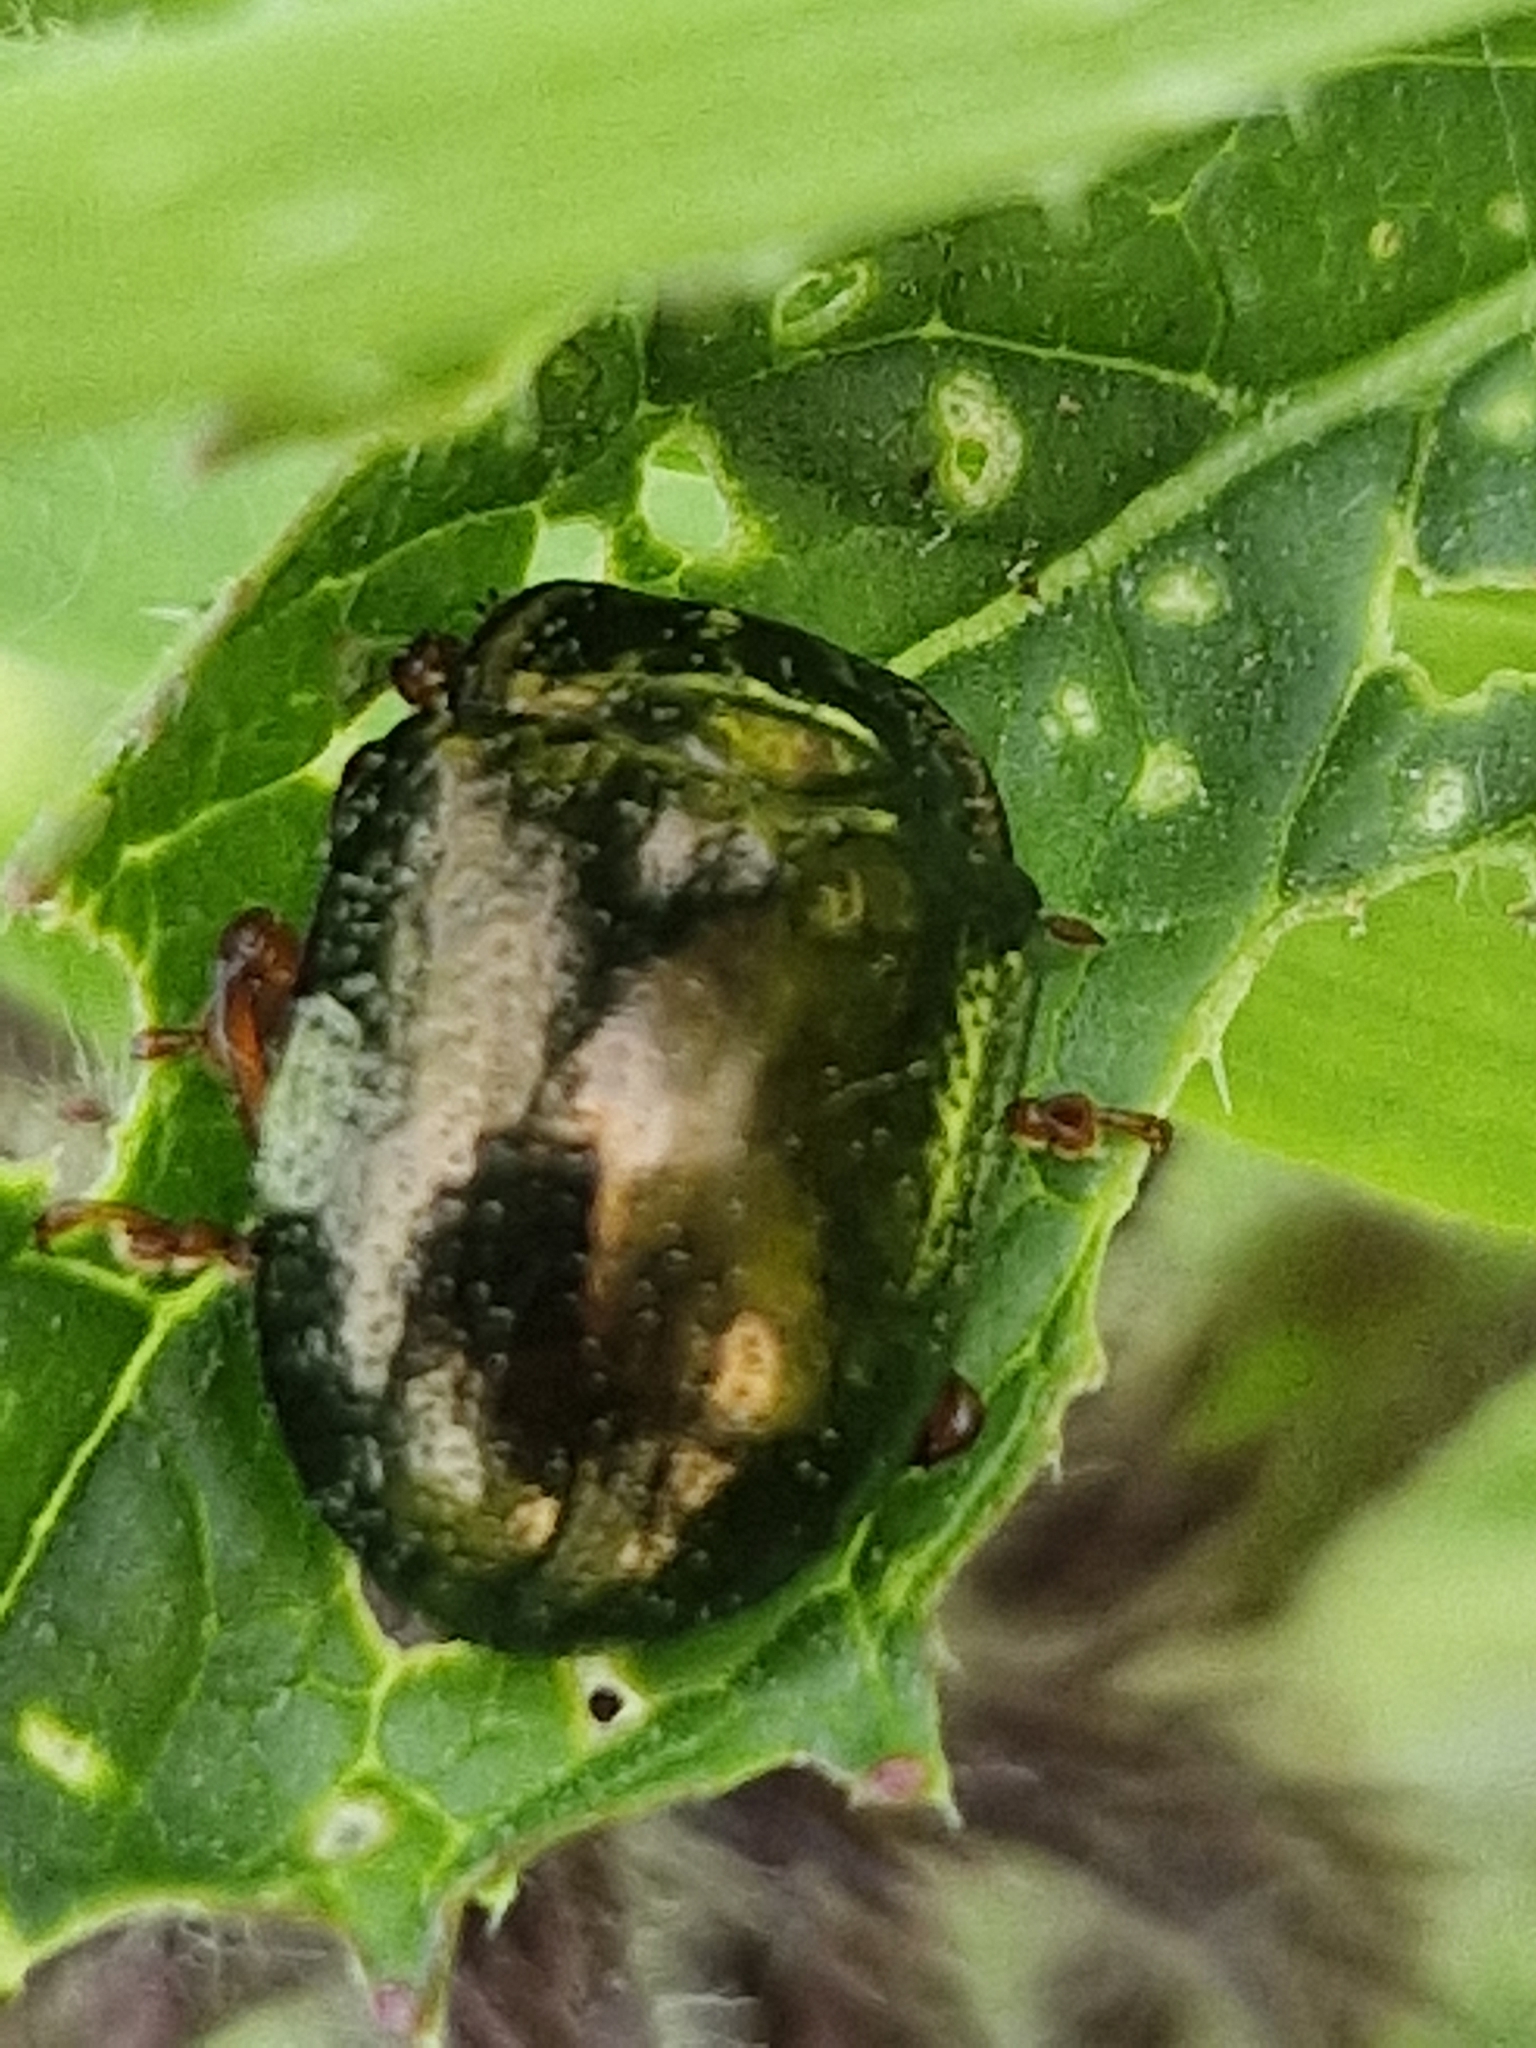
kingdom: Animalia
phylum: Arthropoda
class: Insecta
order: Coleoptera
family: Chrysomelidae
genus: Chrysolina
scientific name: Chrysolina bankii
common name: Leaf beetle
